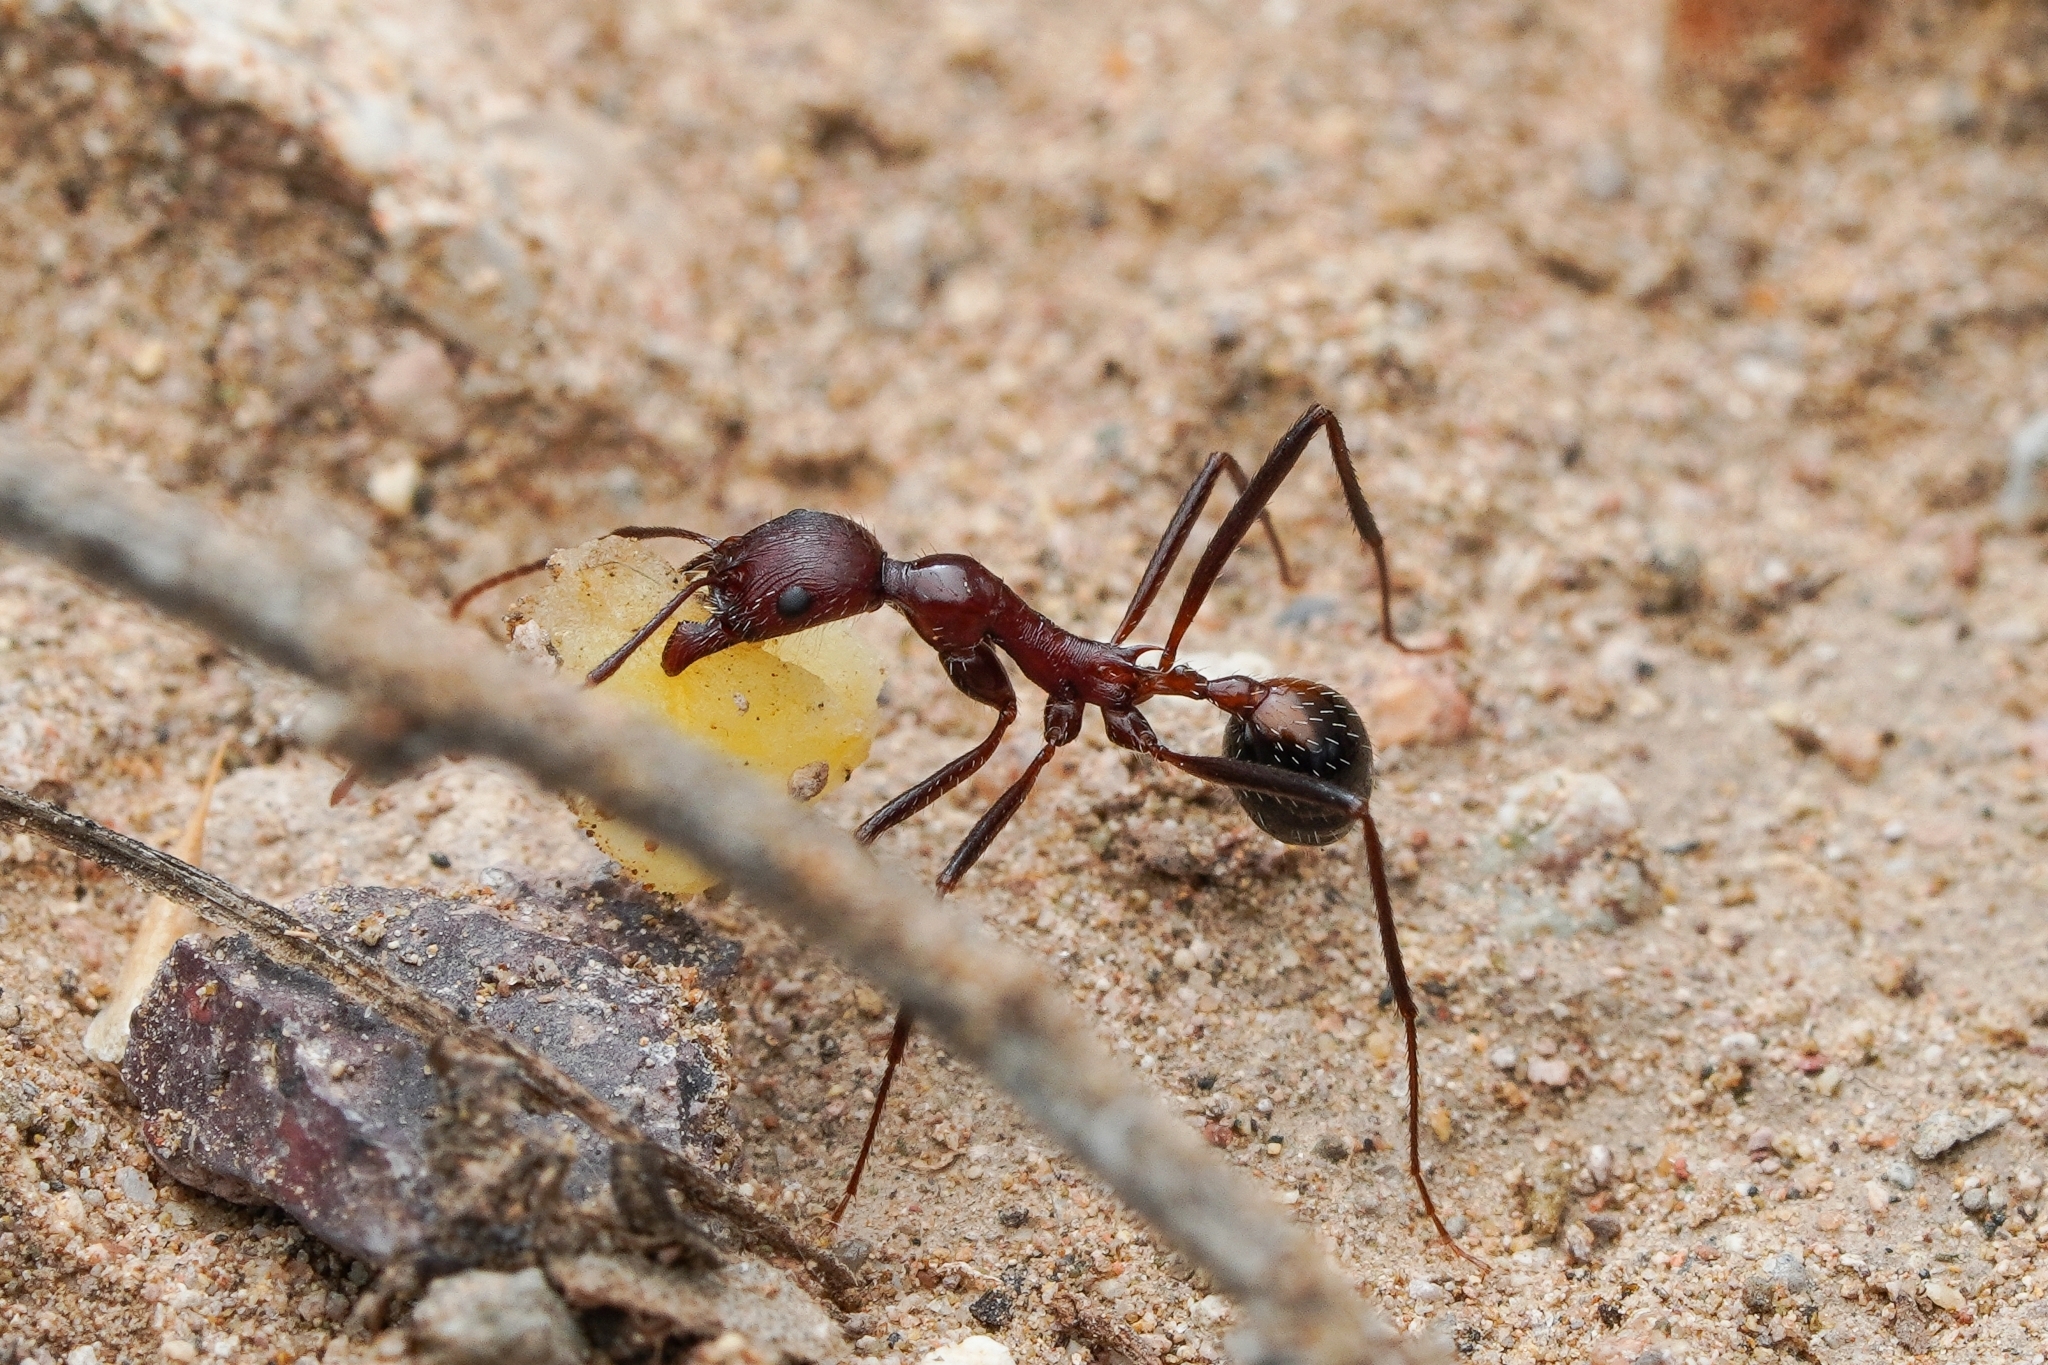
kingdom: Animalia
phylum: Arthropoda
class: Insecta
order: Hymenoptera
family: Formicidae
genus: Novomessor
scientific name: Novomessor cockerelli
